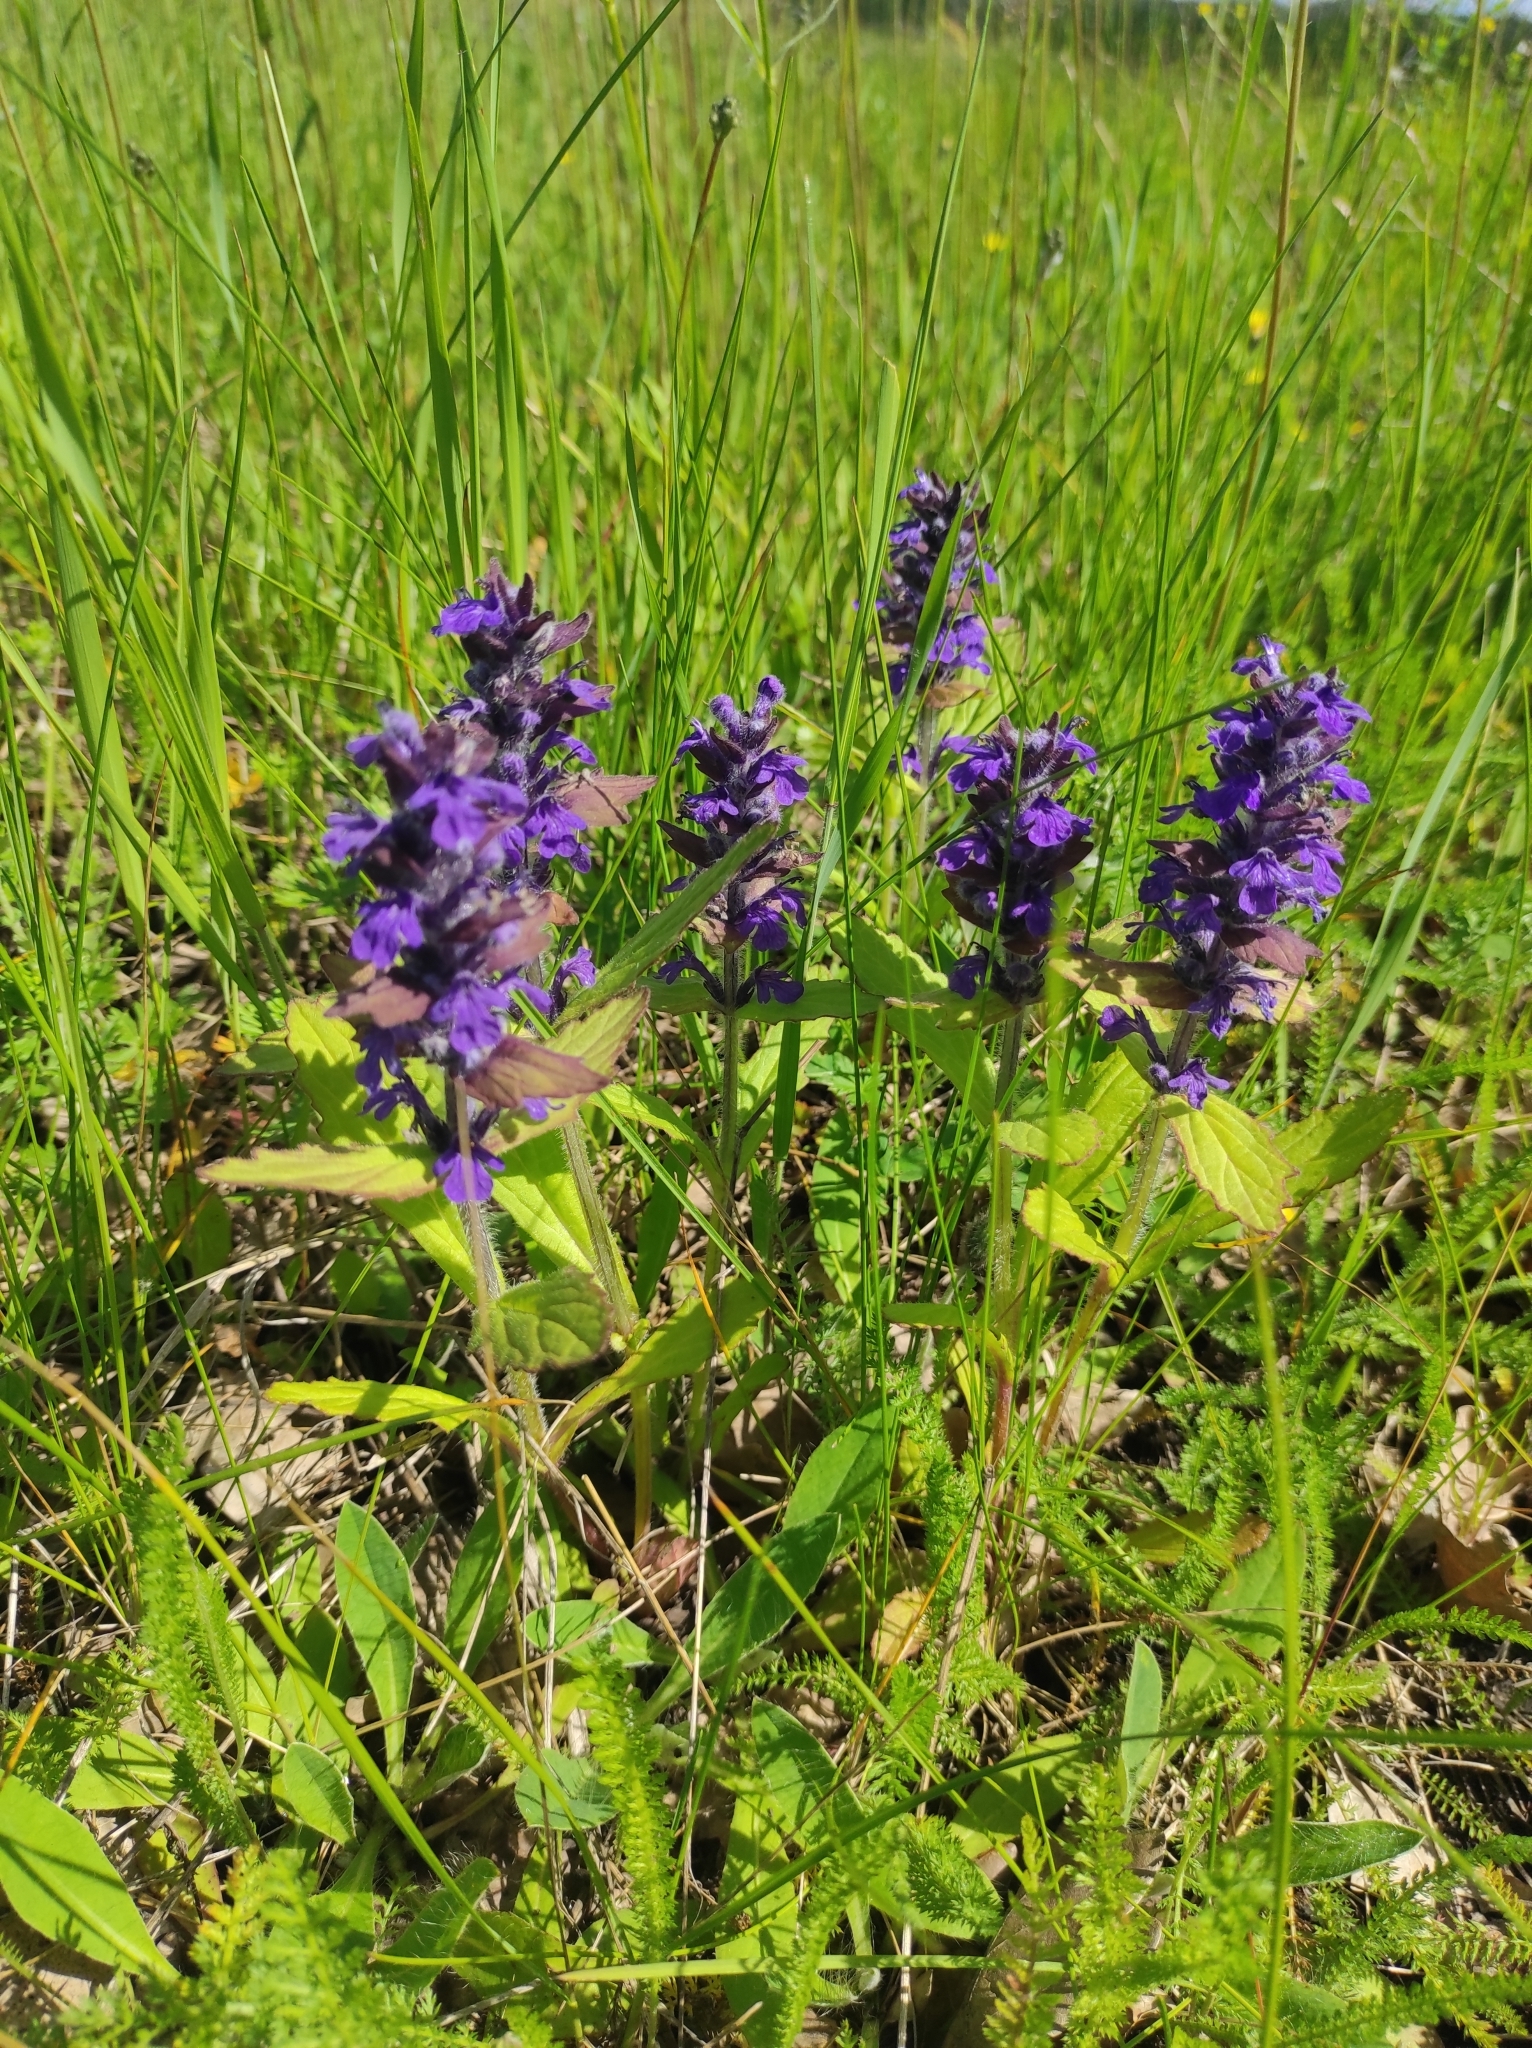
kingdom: Plantae
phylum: Tracheophyta
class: Magnoliopsida
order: Lamiales
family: Lamiaceae
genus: Ajuga
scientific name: Ajuga genevensis
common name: Blue bugle
